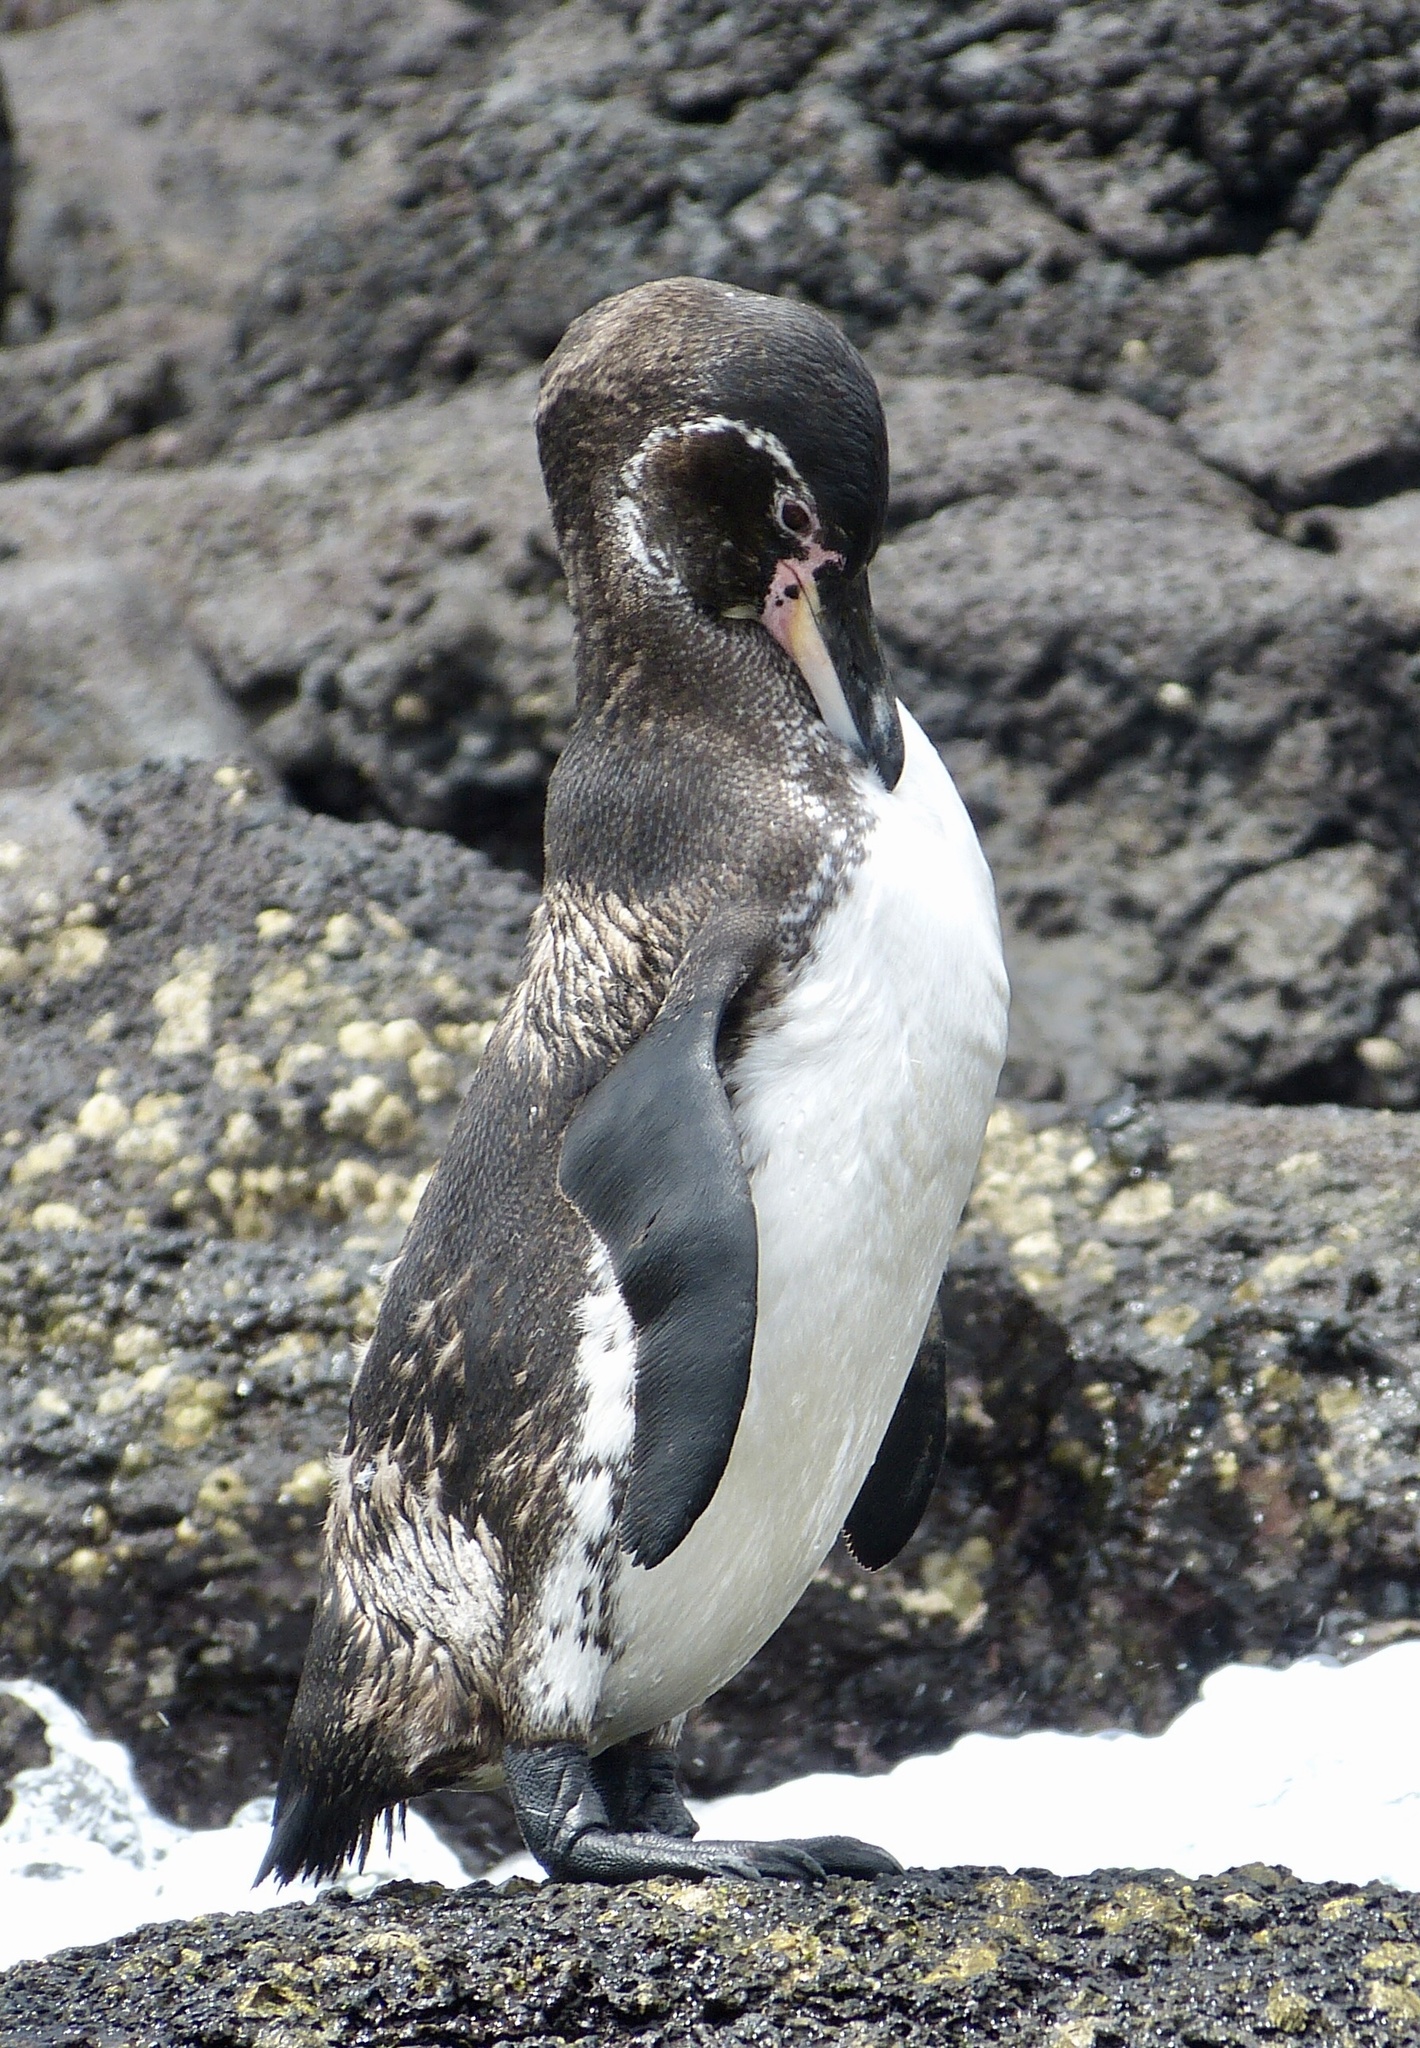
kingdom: Animalia
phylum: Chordata
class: Aves
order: Sphenisciformes
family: Spheniscidae
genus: Spheniscus
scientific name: Spheniscus mendiculus
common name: Galapagos penguin
